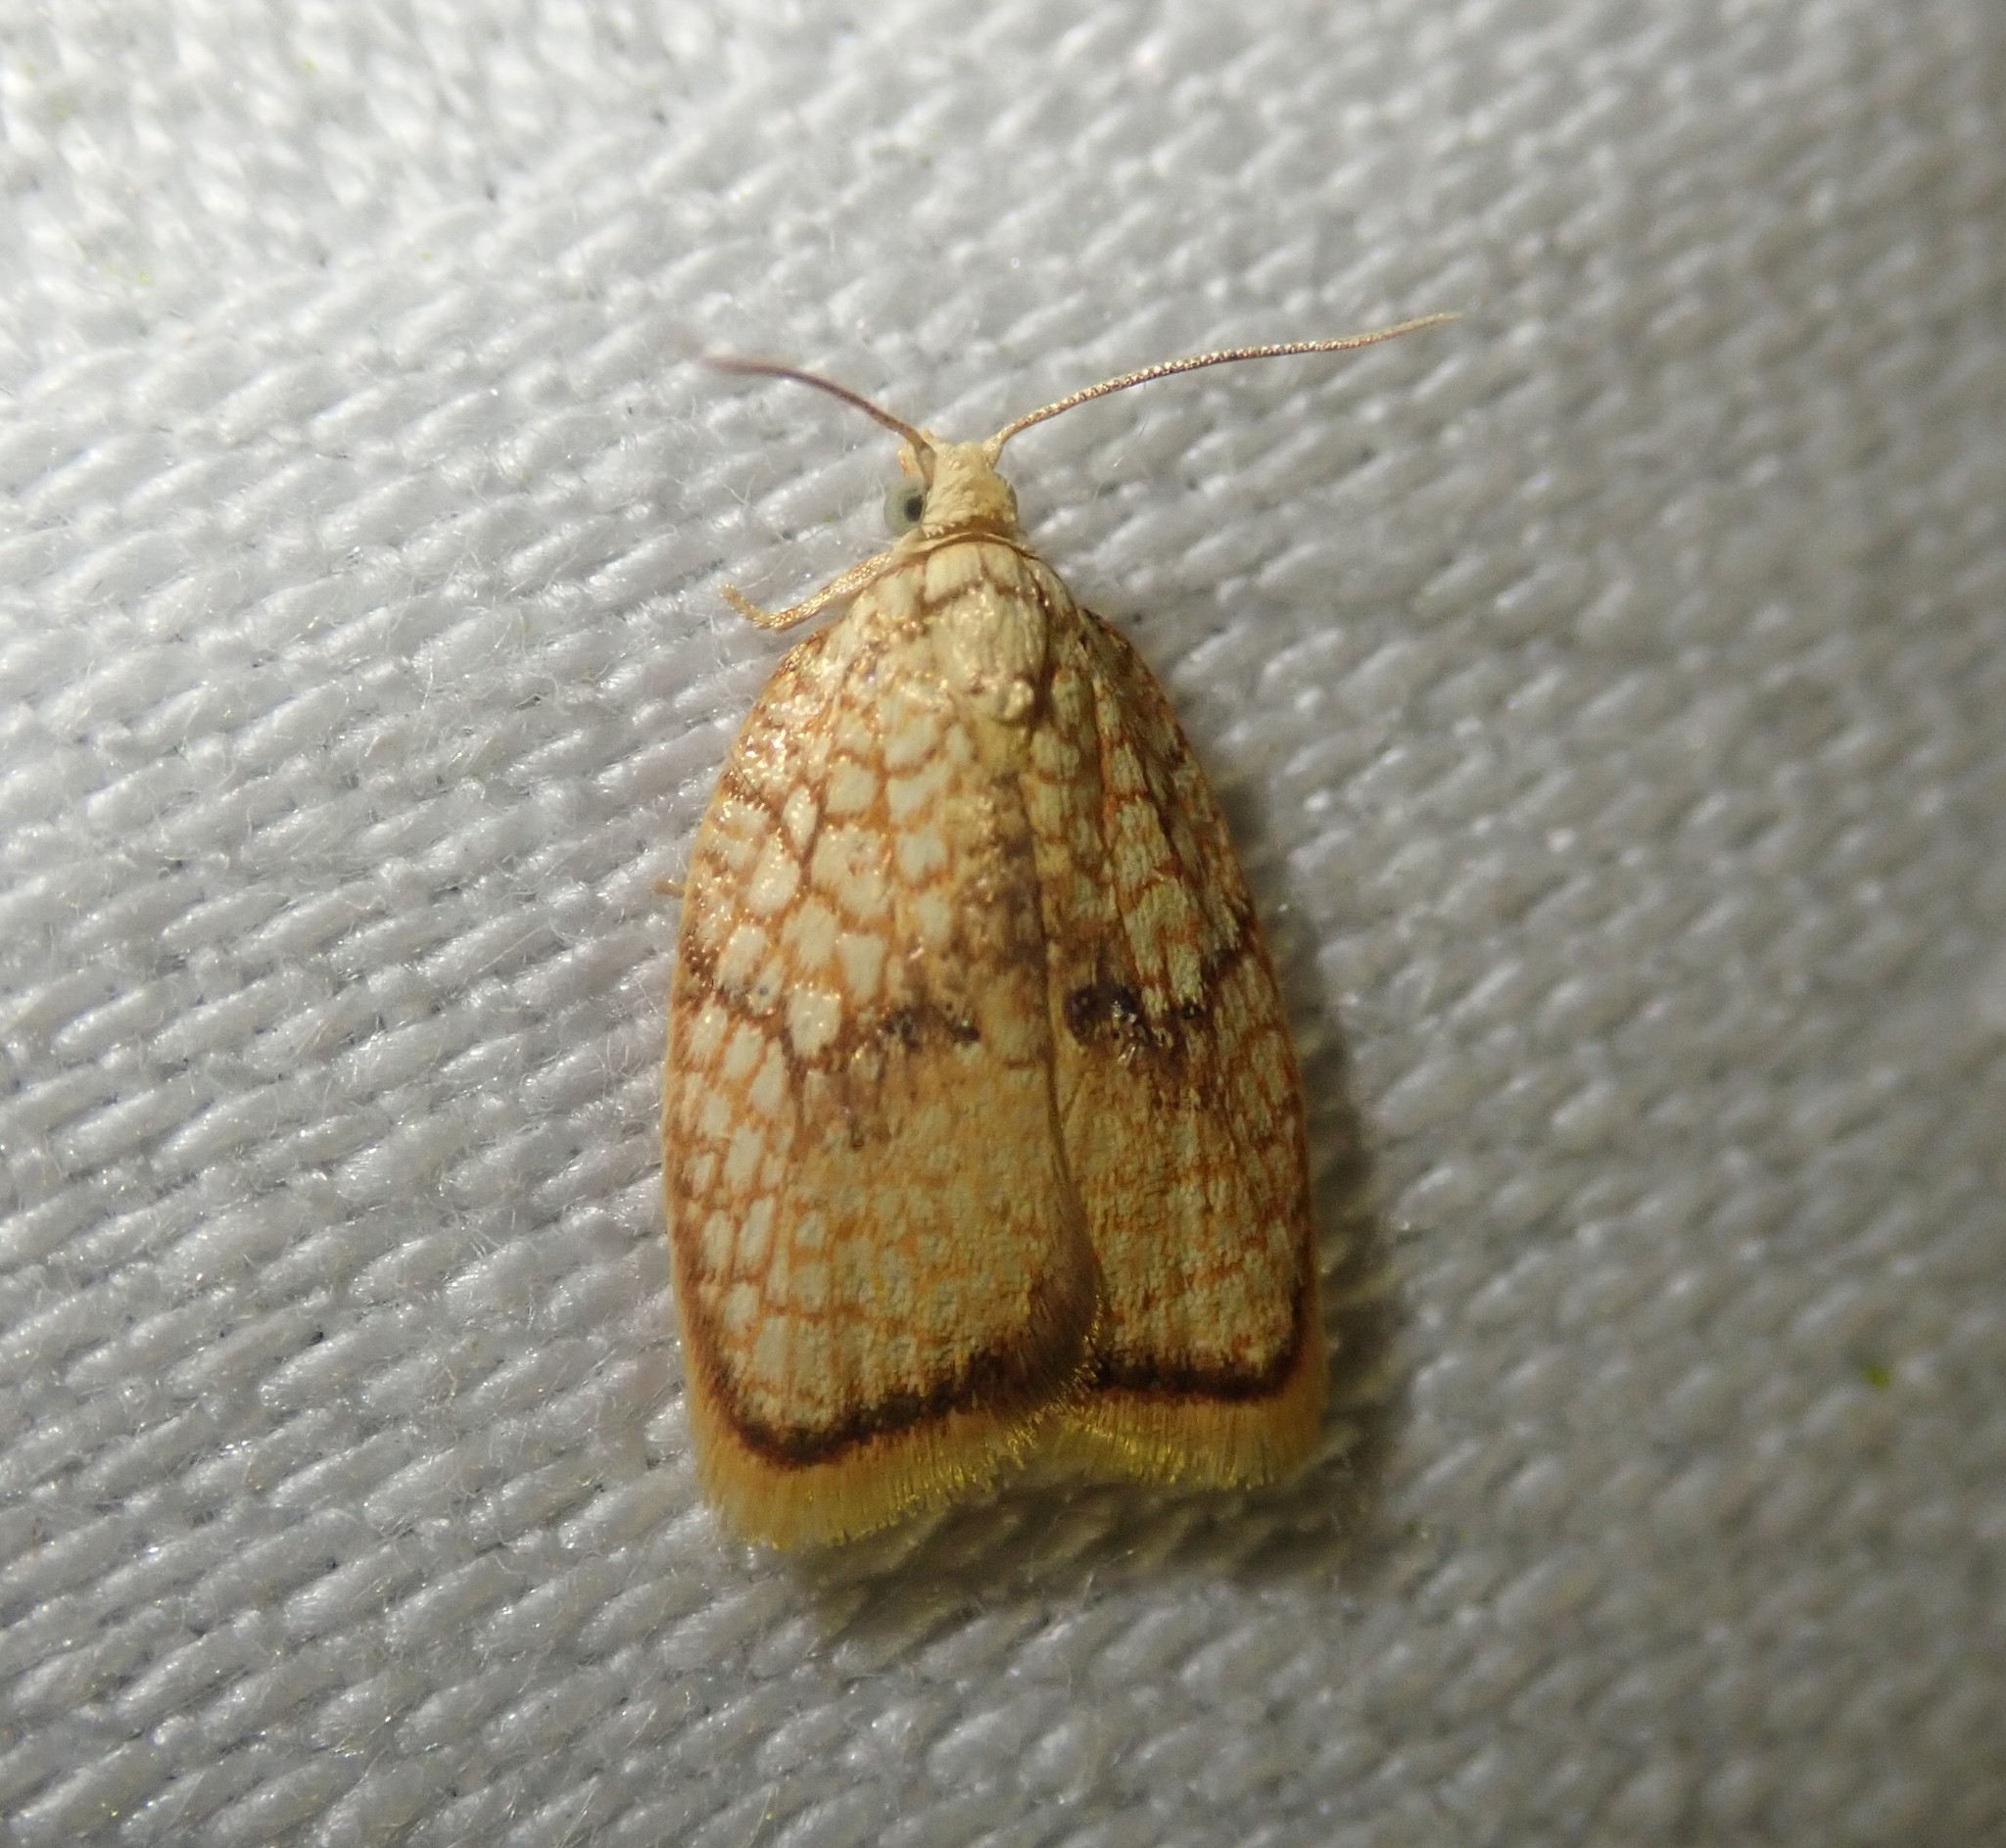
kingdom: Animalia
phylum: Arthropoda
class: Insecta
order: Lepidoptera
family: Tortricidae
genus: Acleris
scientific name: Acleris forsskaleana
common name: Maple button
